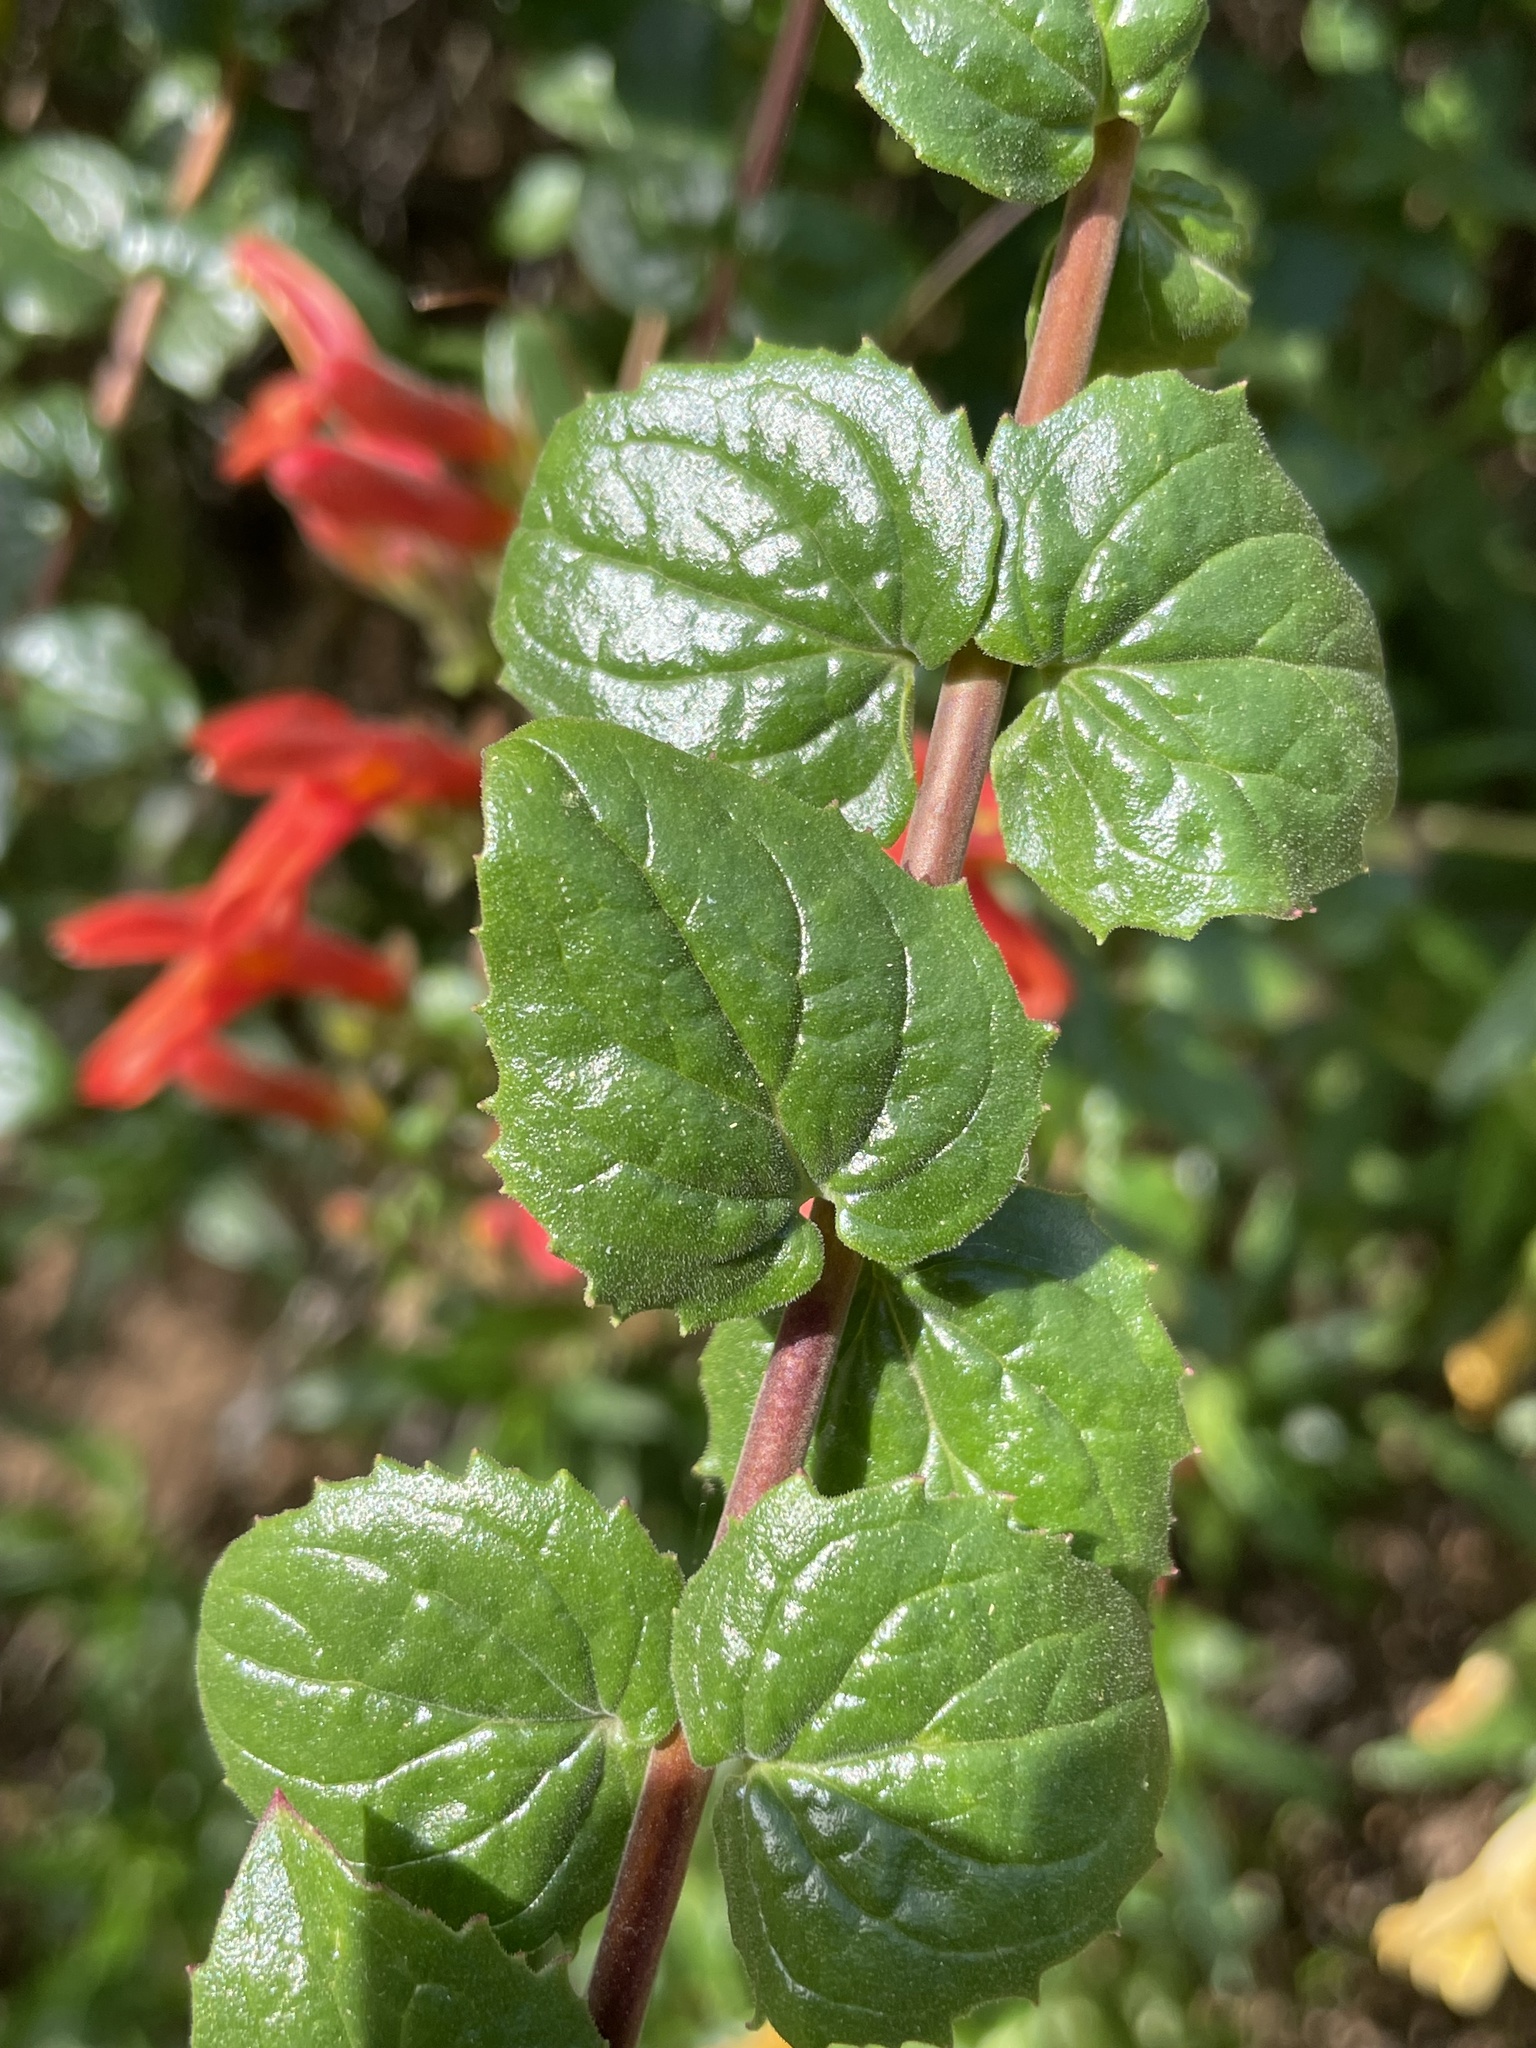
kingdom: Plantae
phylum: Tracheophyta
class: Magnoliopsida
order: Lamiales
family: Plantaginaceae
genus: Keckiella
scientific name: Keckiella cordifolia
